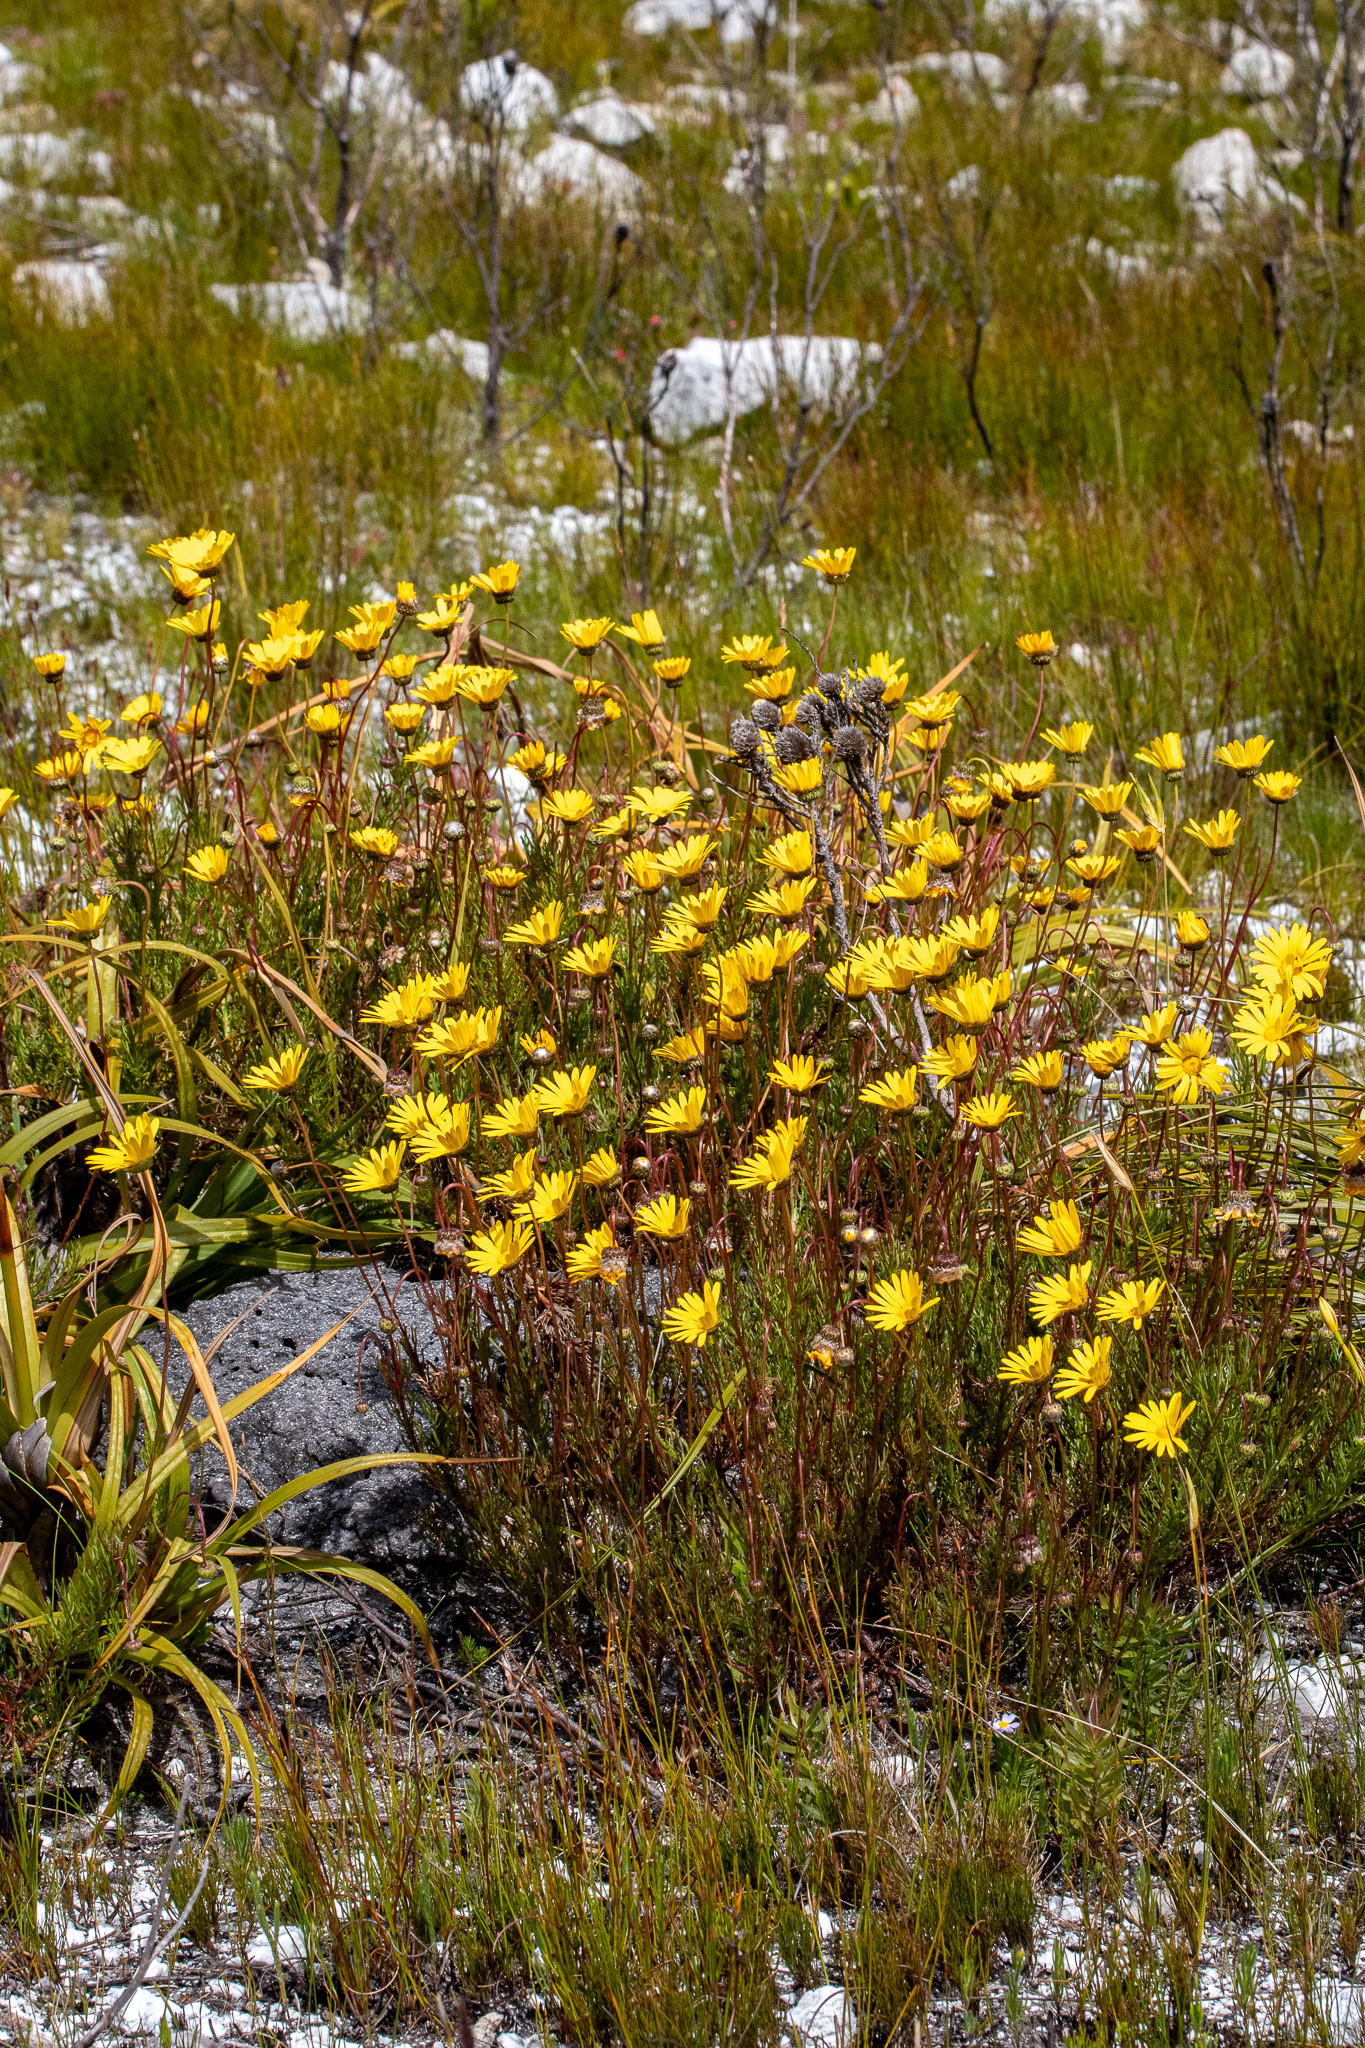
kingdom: Plantae
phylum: Tracheophyta
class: Magnoliopsida
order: Asterales
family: Asteraceae
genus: Ursinia
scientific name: Ursinia paleacea
